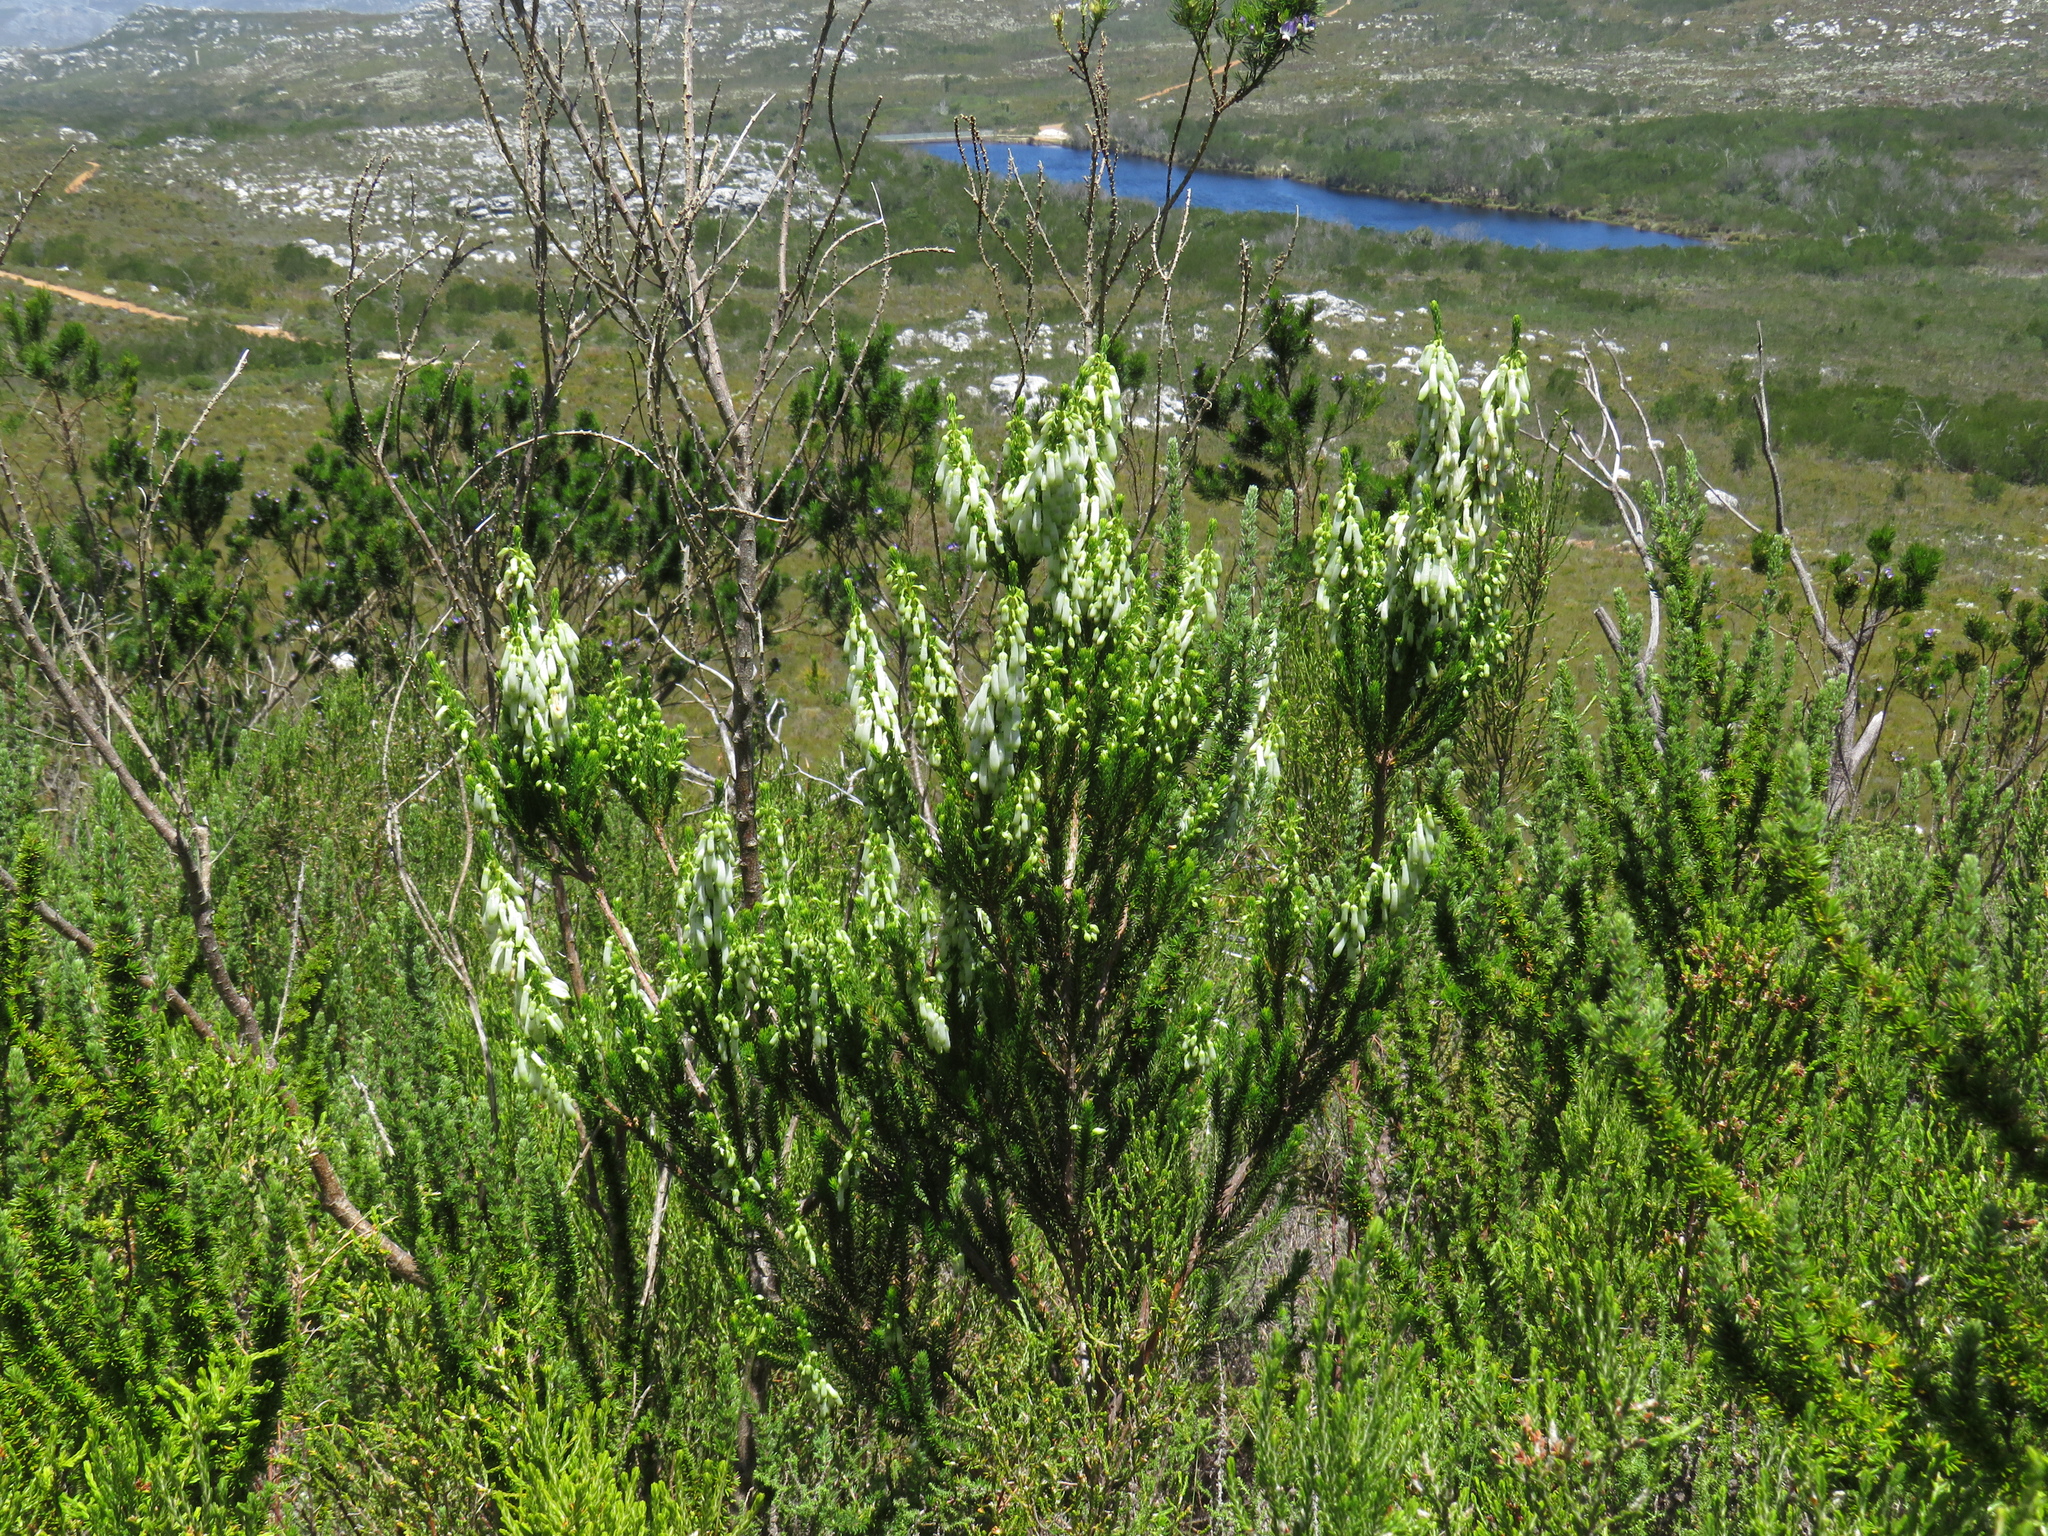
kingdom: Plantae
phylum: Tracheophyta
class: Magnoliopsida
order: Ericales
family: Ericaceae
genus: Erica
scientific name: Erica mammosa
